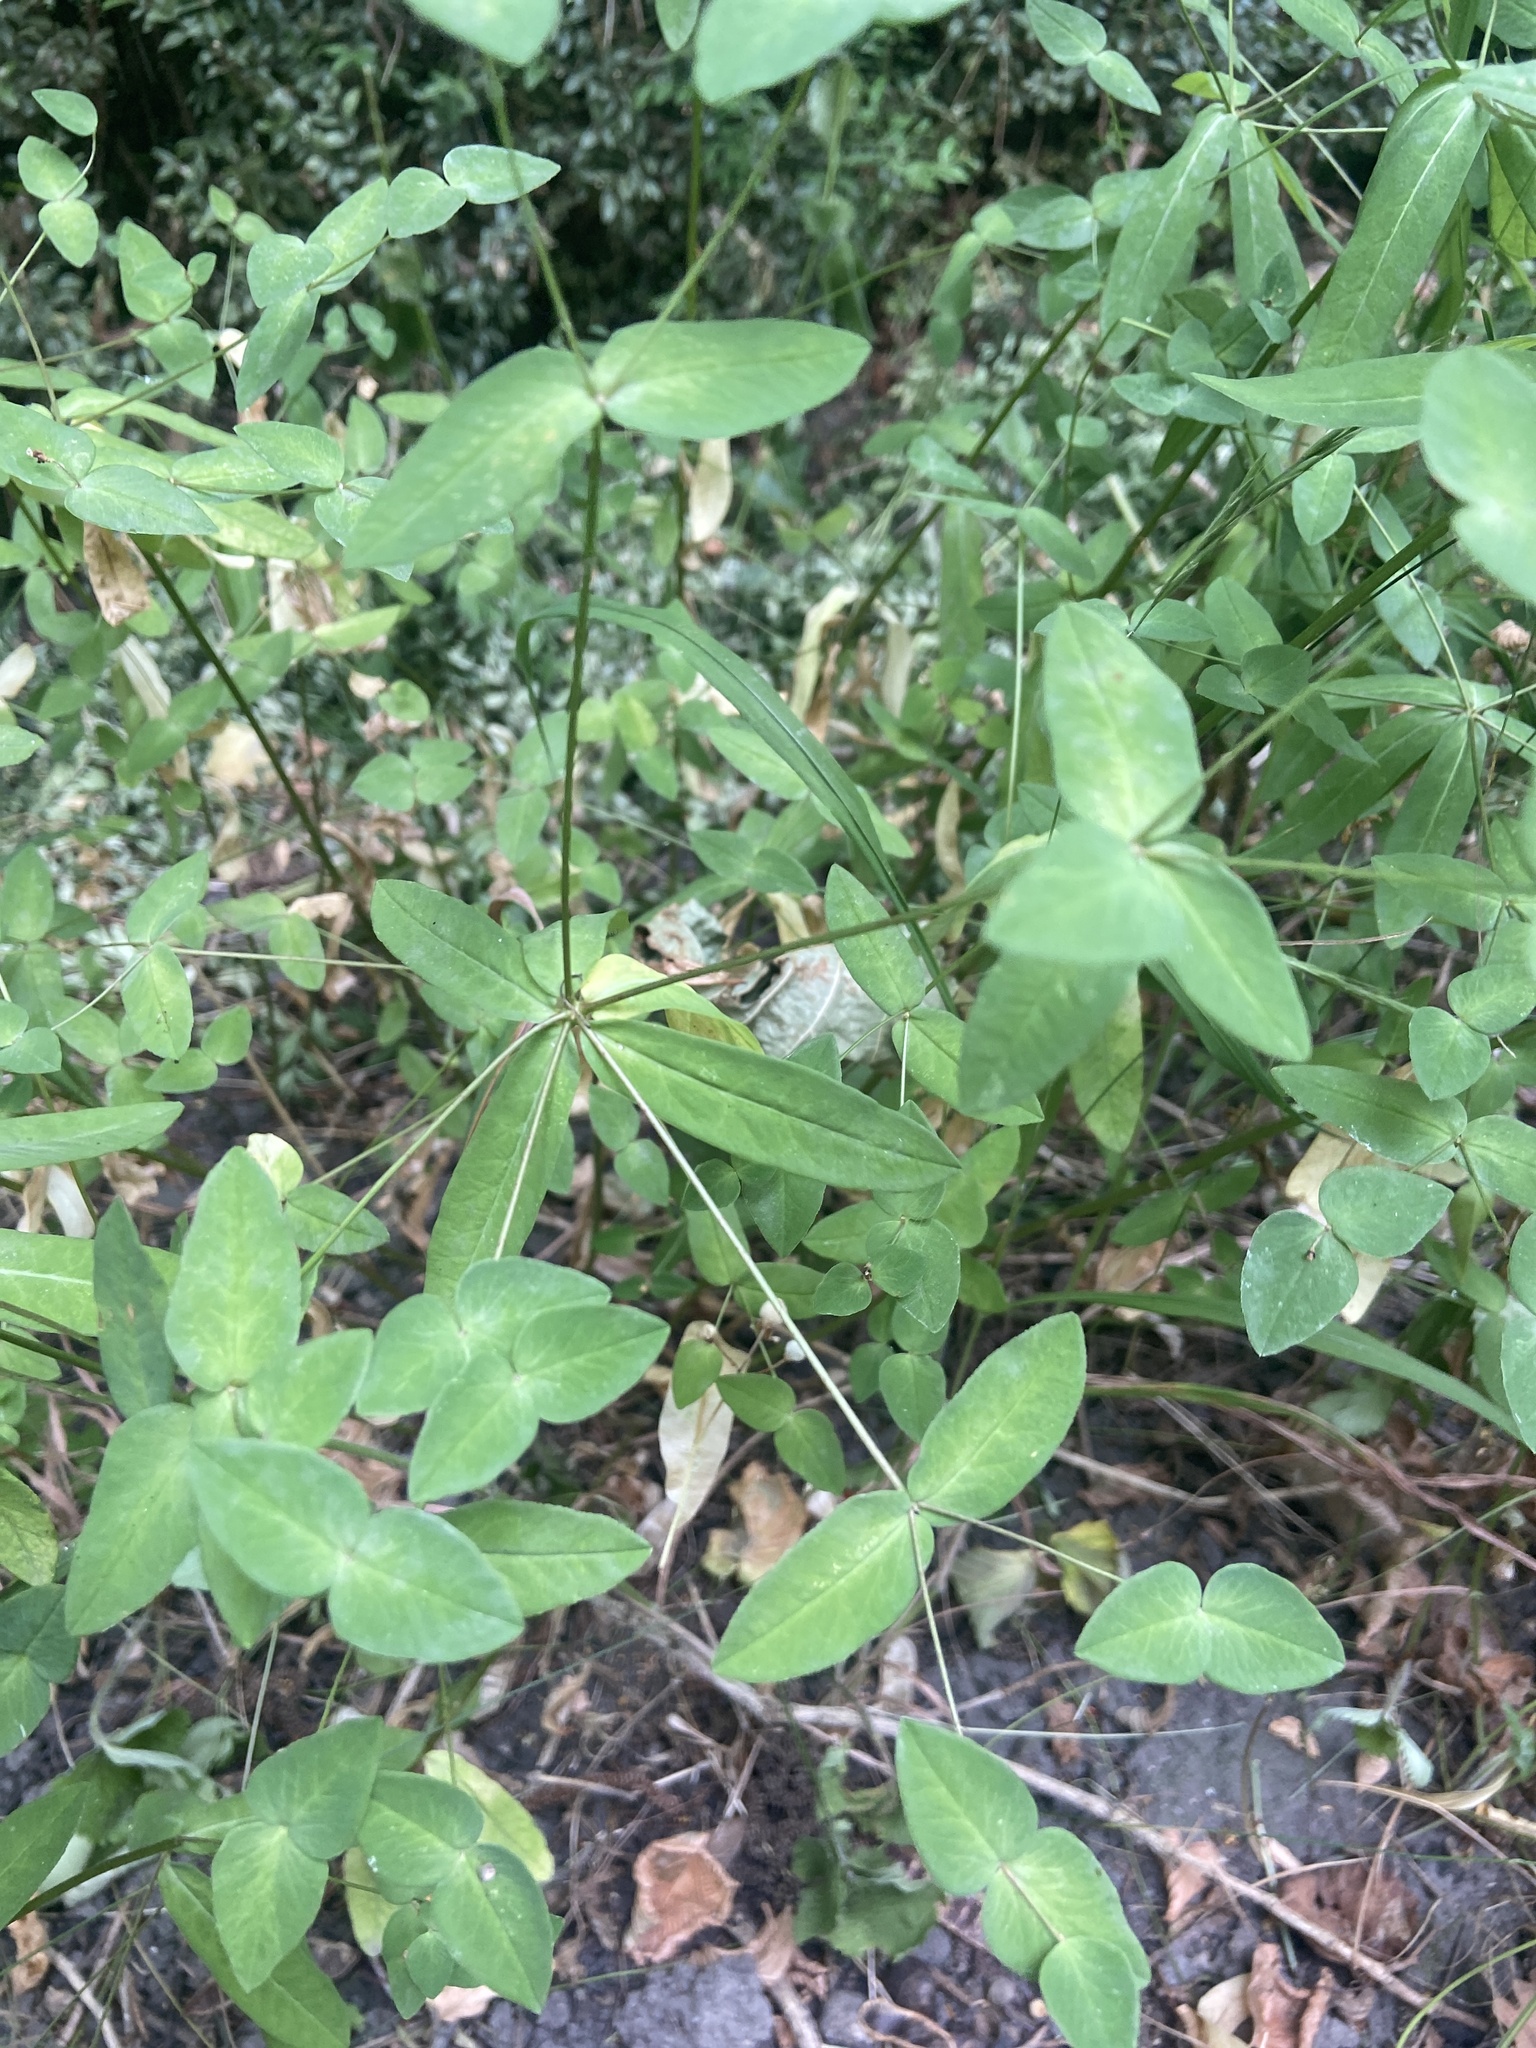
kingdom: Plantae
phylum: Tracheophyta
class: Magnoliopsida
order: Malpighiales
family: Euphorbiaceae
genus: Euphorbia
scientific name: Euphorbia dulcis
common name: Sweet spurge
